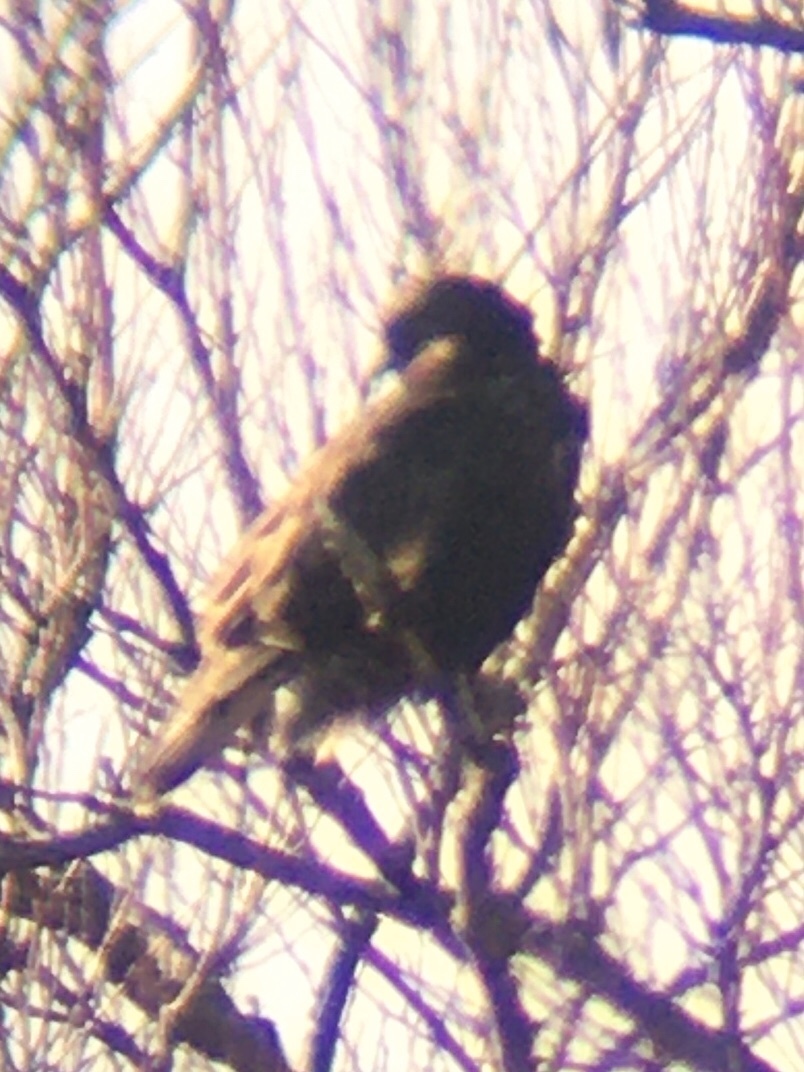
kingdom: Animalia
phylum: Chordata
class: Aves
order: Accipitriformes
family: Accipitridae
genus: Buteo
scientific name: Buteo lagopus
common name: Rough-legged buzzard
